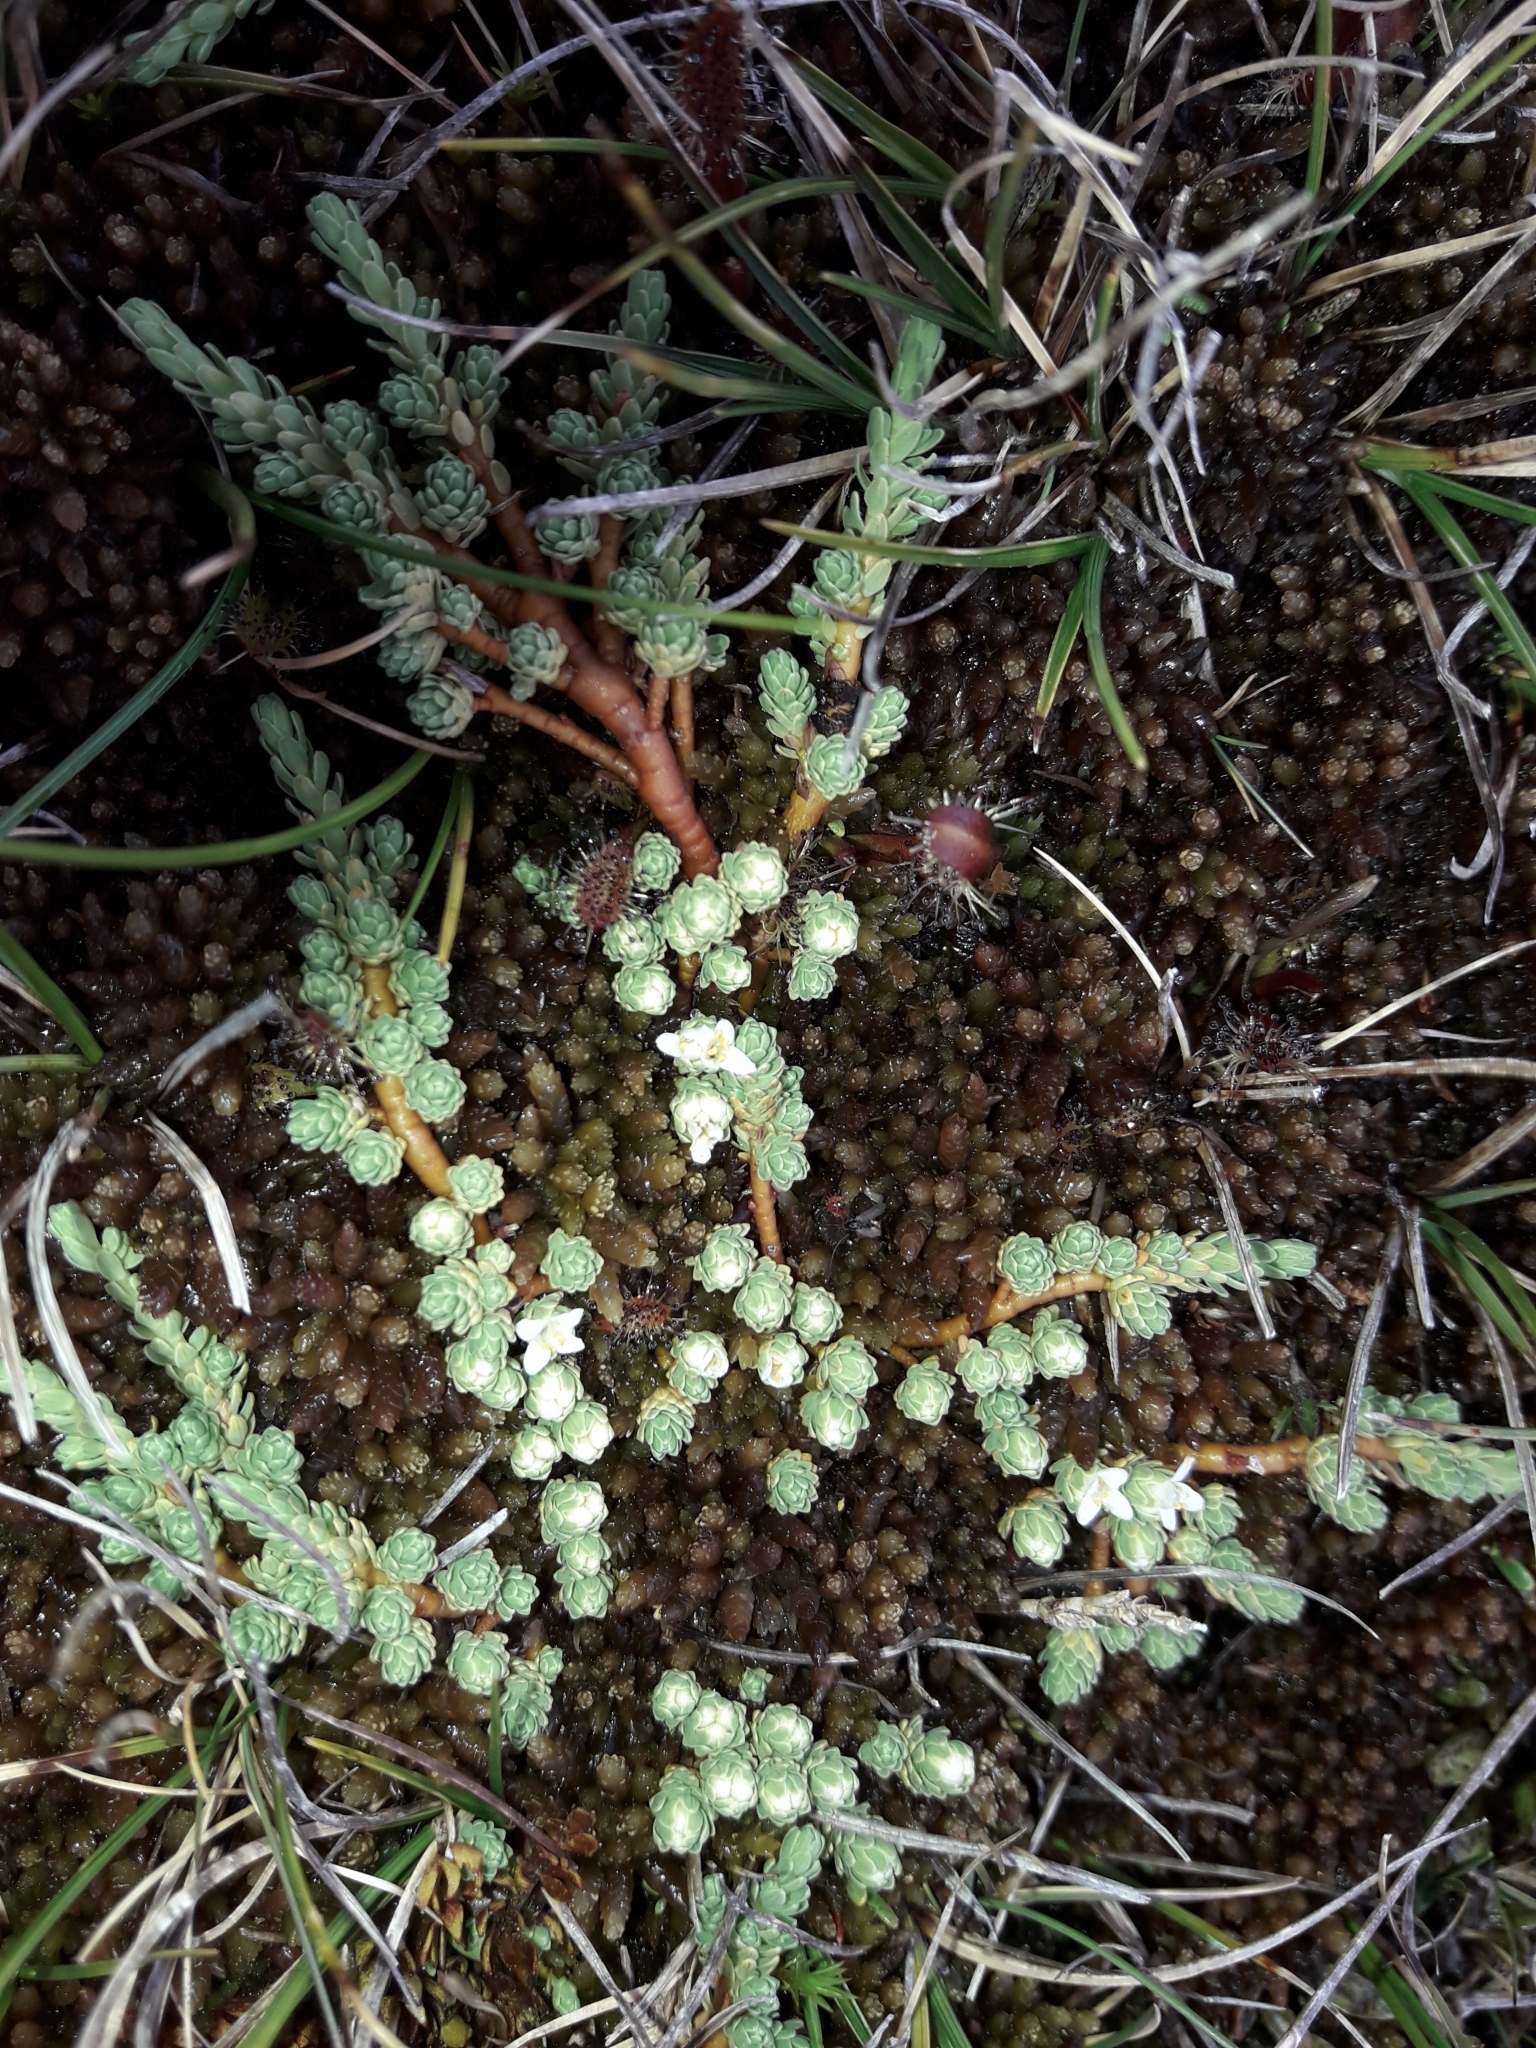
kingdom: Plantae
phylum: Tracheophyta
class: Magnoliopsida
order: Malvales
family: Thymelaeaceae
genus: Kelleria
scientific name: Kelleria paludosa
